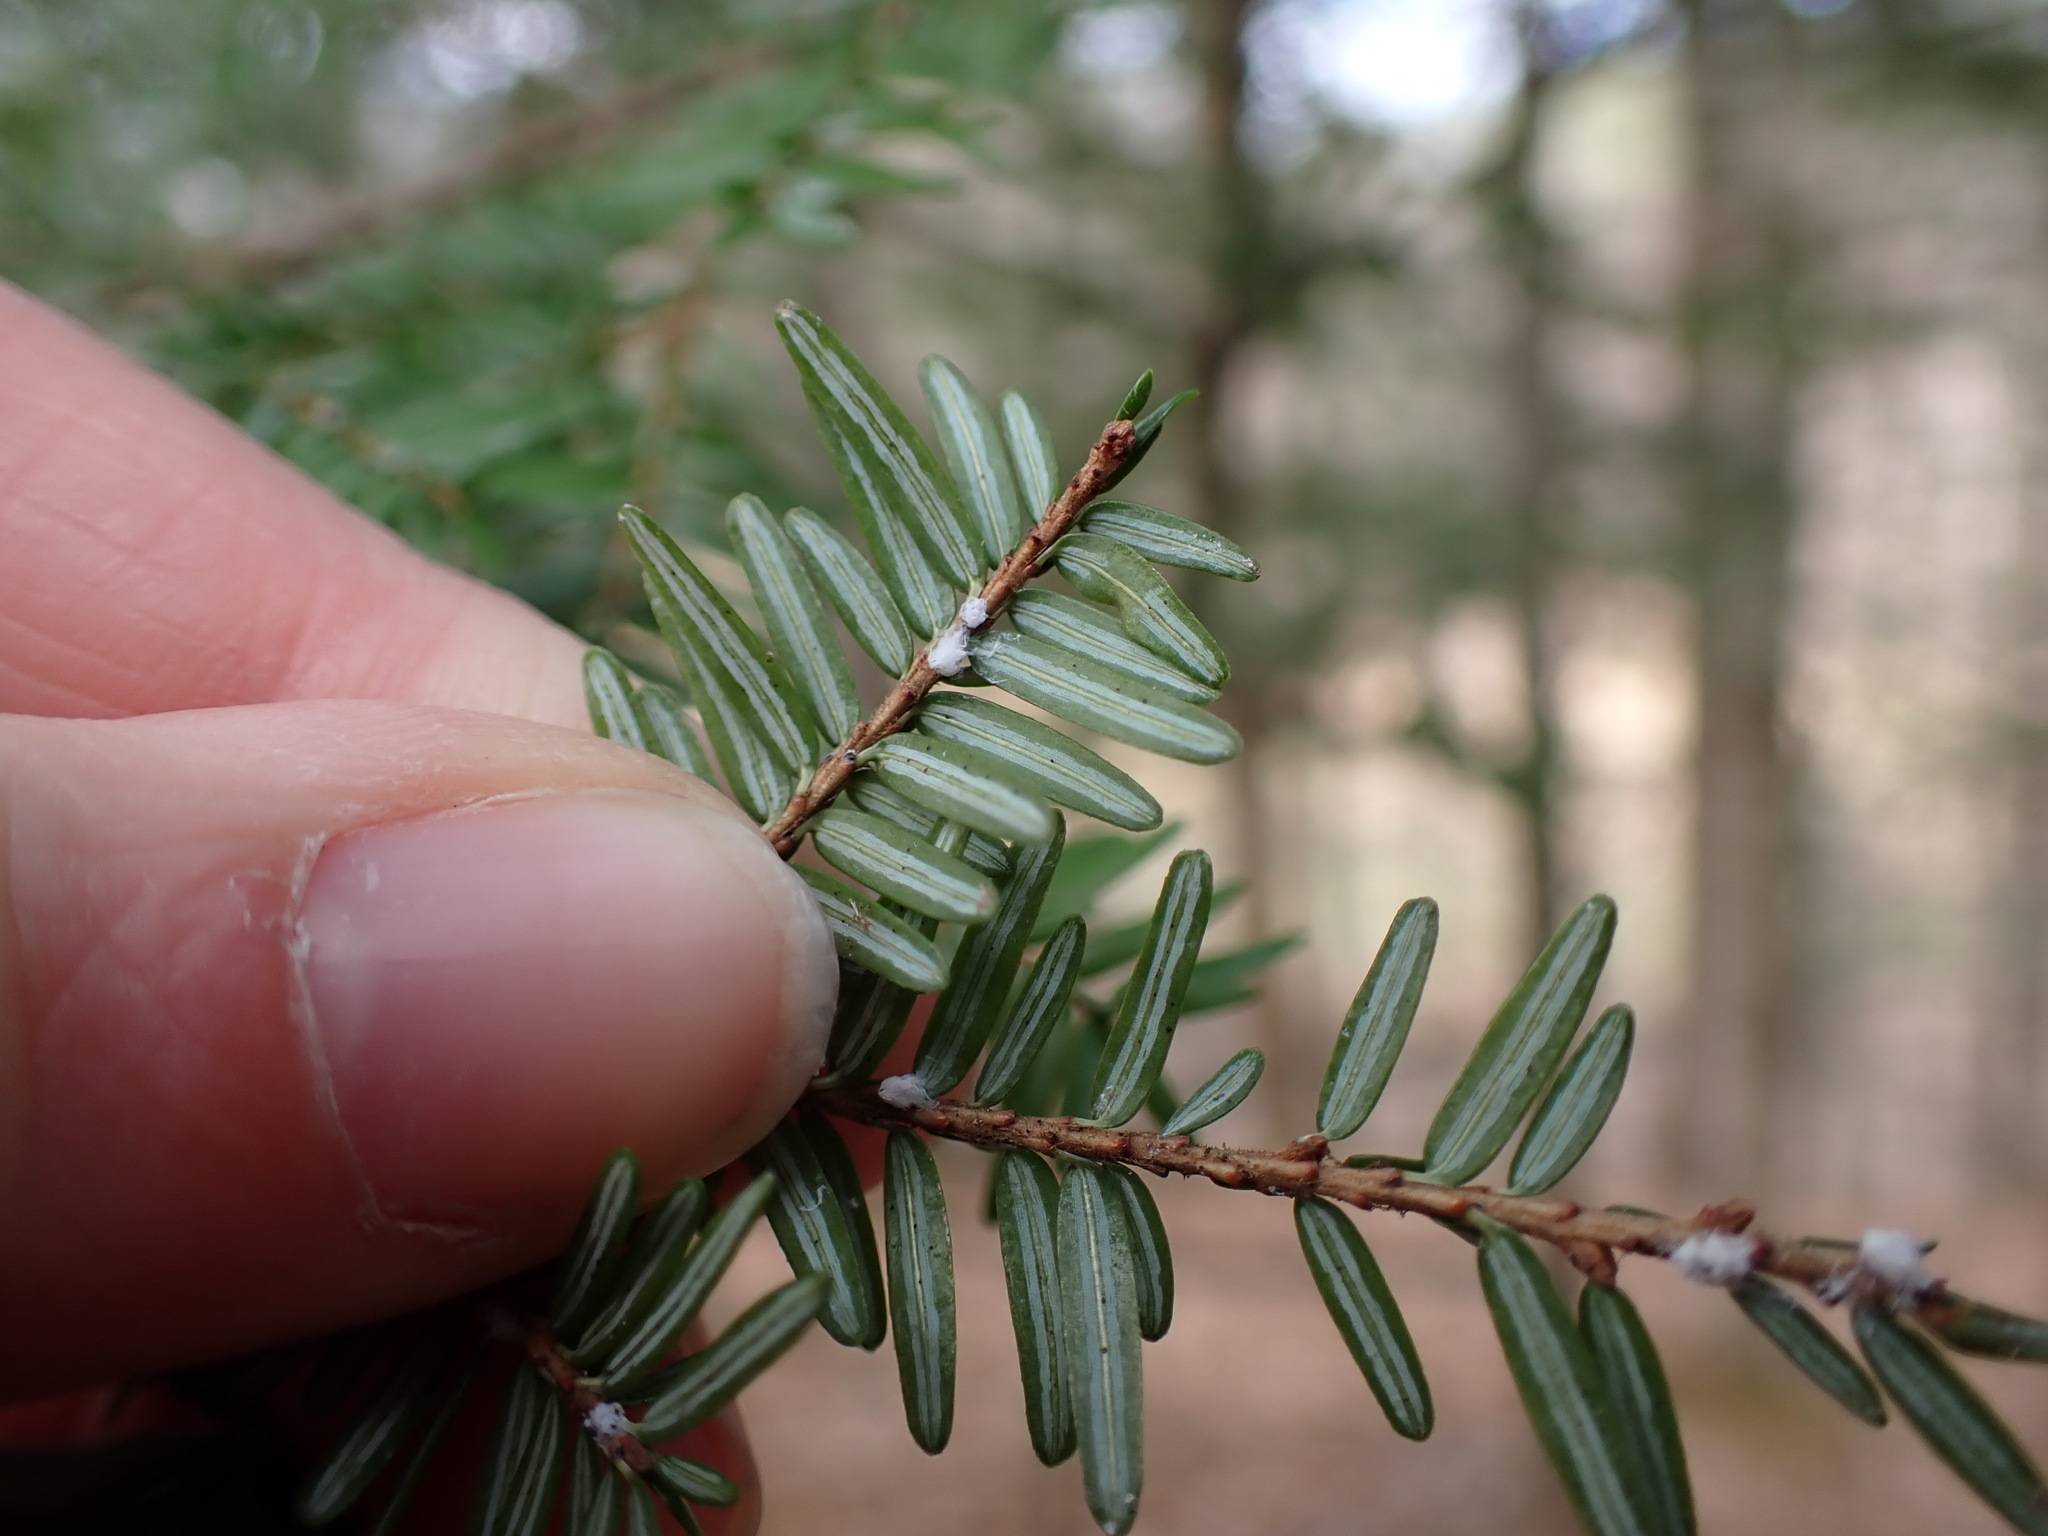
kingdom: Animalia
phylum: Arthropoda
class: Insecta
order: Hemiptera
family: Adelgidae
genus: Adelges
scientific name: Adelges tsugae
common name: Hemlock woolly adelgid
